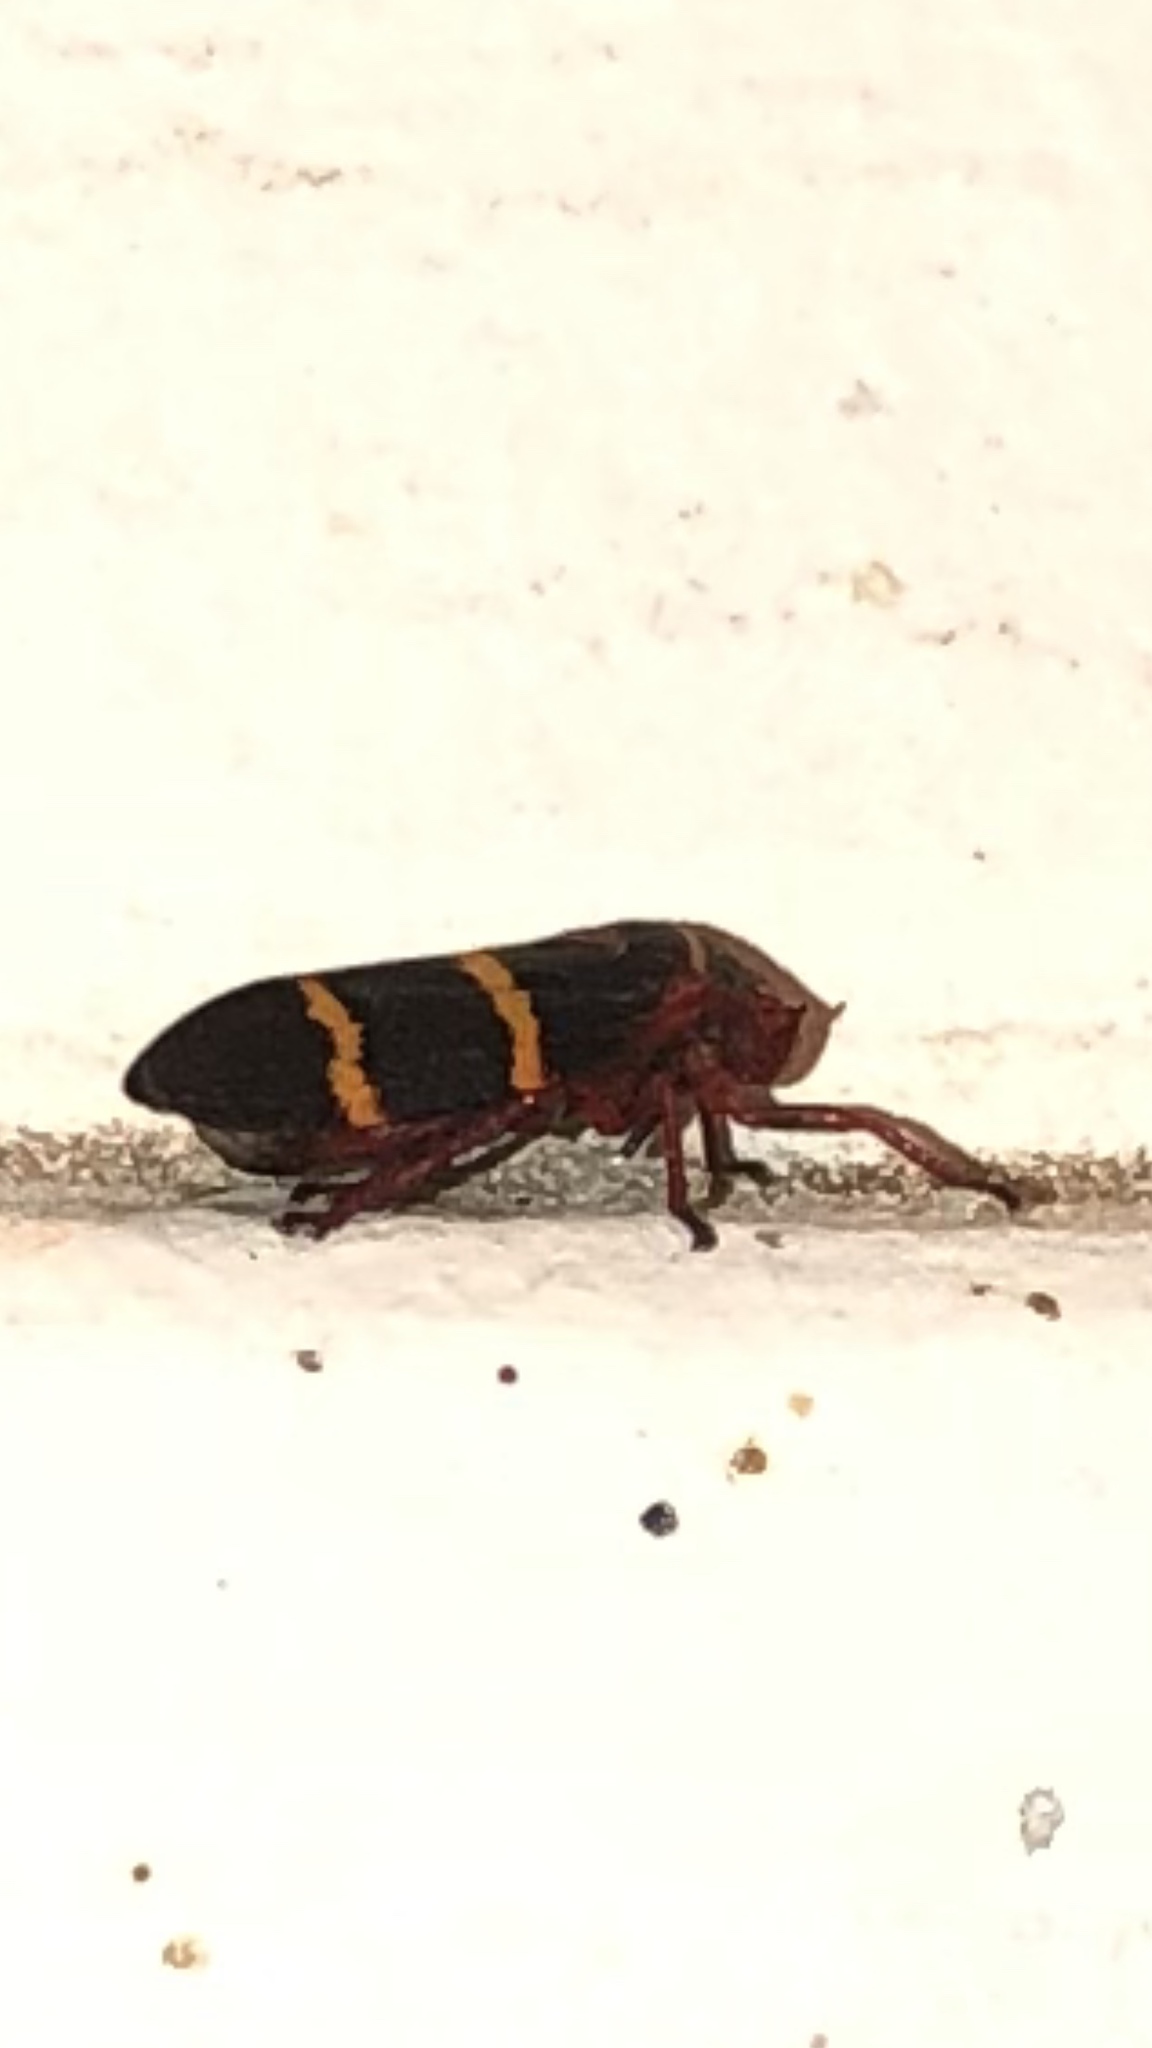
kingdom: Animalia
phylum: Arthropoda
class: Insecta
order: Hemiptera
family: Cercopidae
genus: Prosapia
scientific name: Prosapia bicincta
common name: Twolined spittlebug
